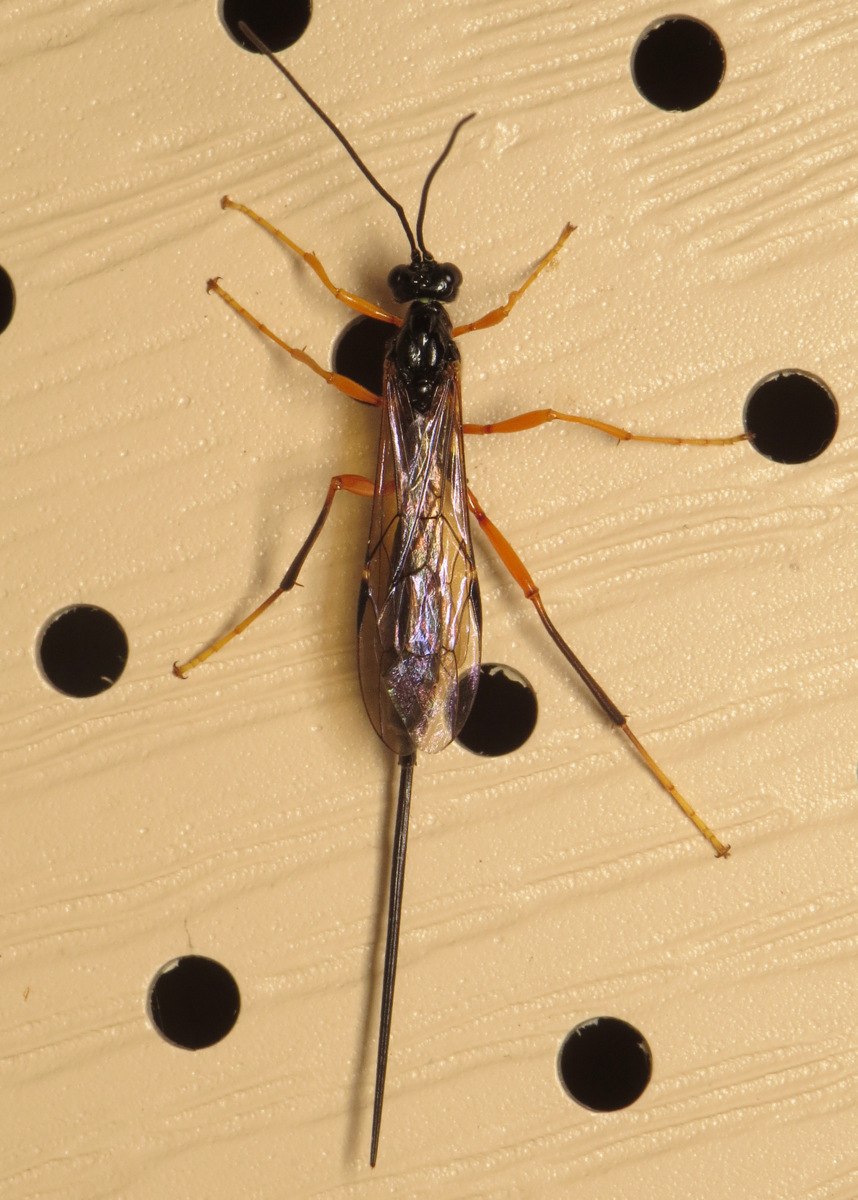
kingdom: Animalia
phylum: Arthropoda
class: Insecta
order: Hymenoptera
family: Ichneumonidae
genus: Coleocentrus
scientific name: Coleocentrus pettiti
